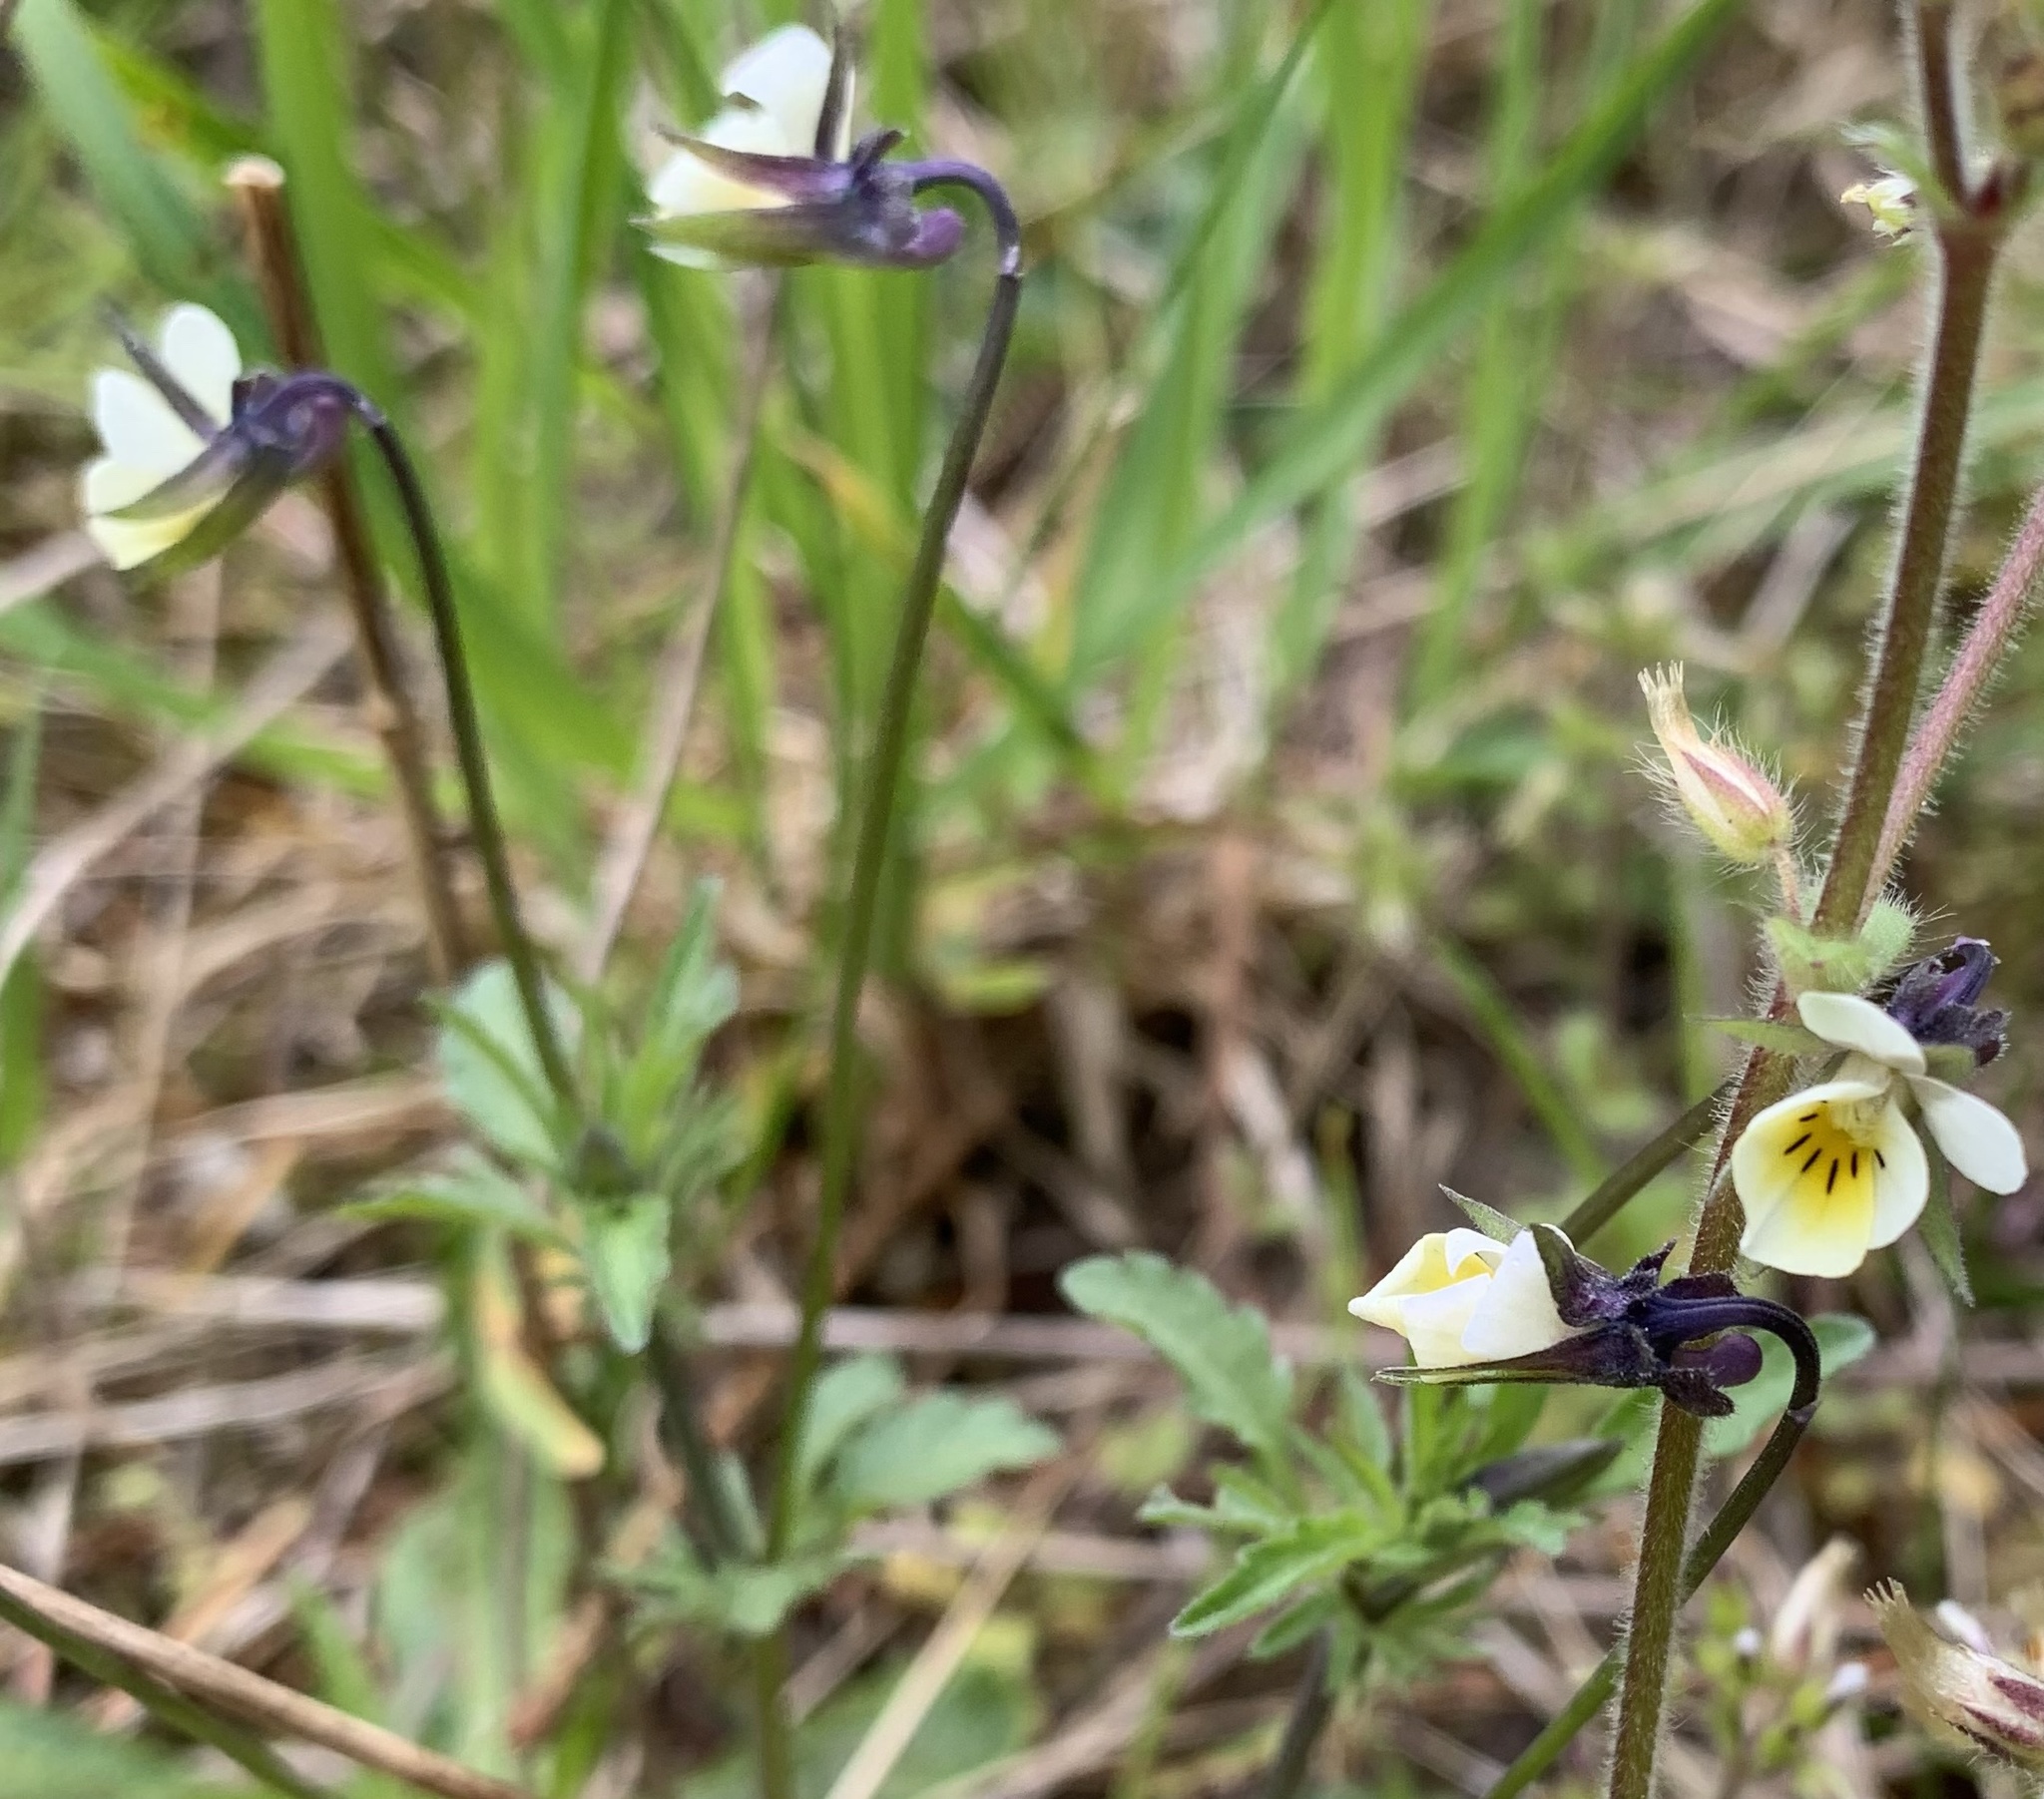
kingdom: Plantae
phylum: Tracheophyta
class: Magnoliopsida
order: Malpighiales
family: Violaceae
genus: Viola
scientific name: Viola arvensis
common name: Field pansy
